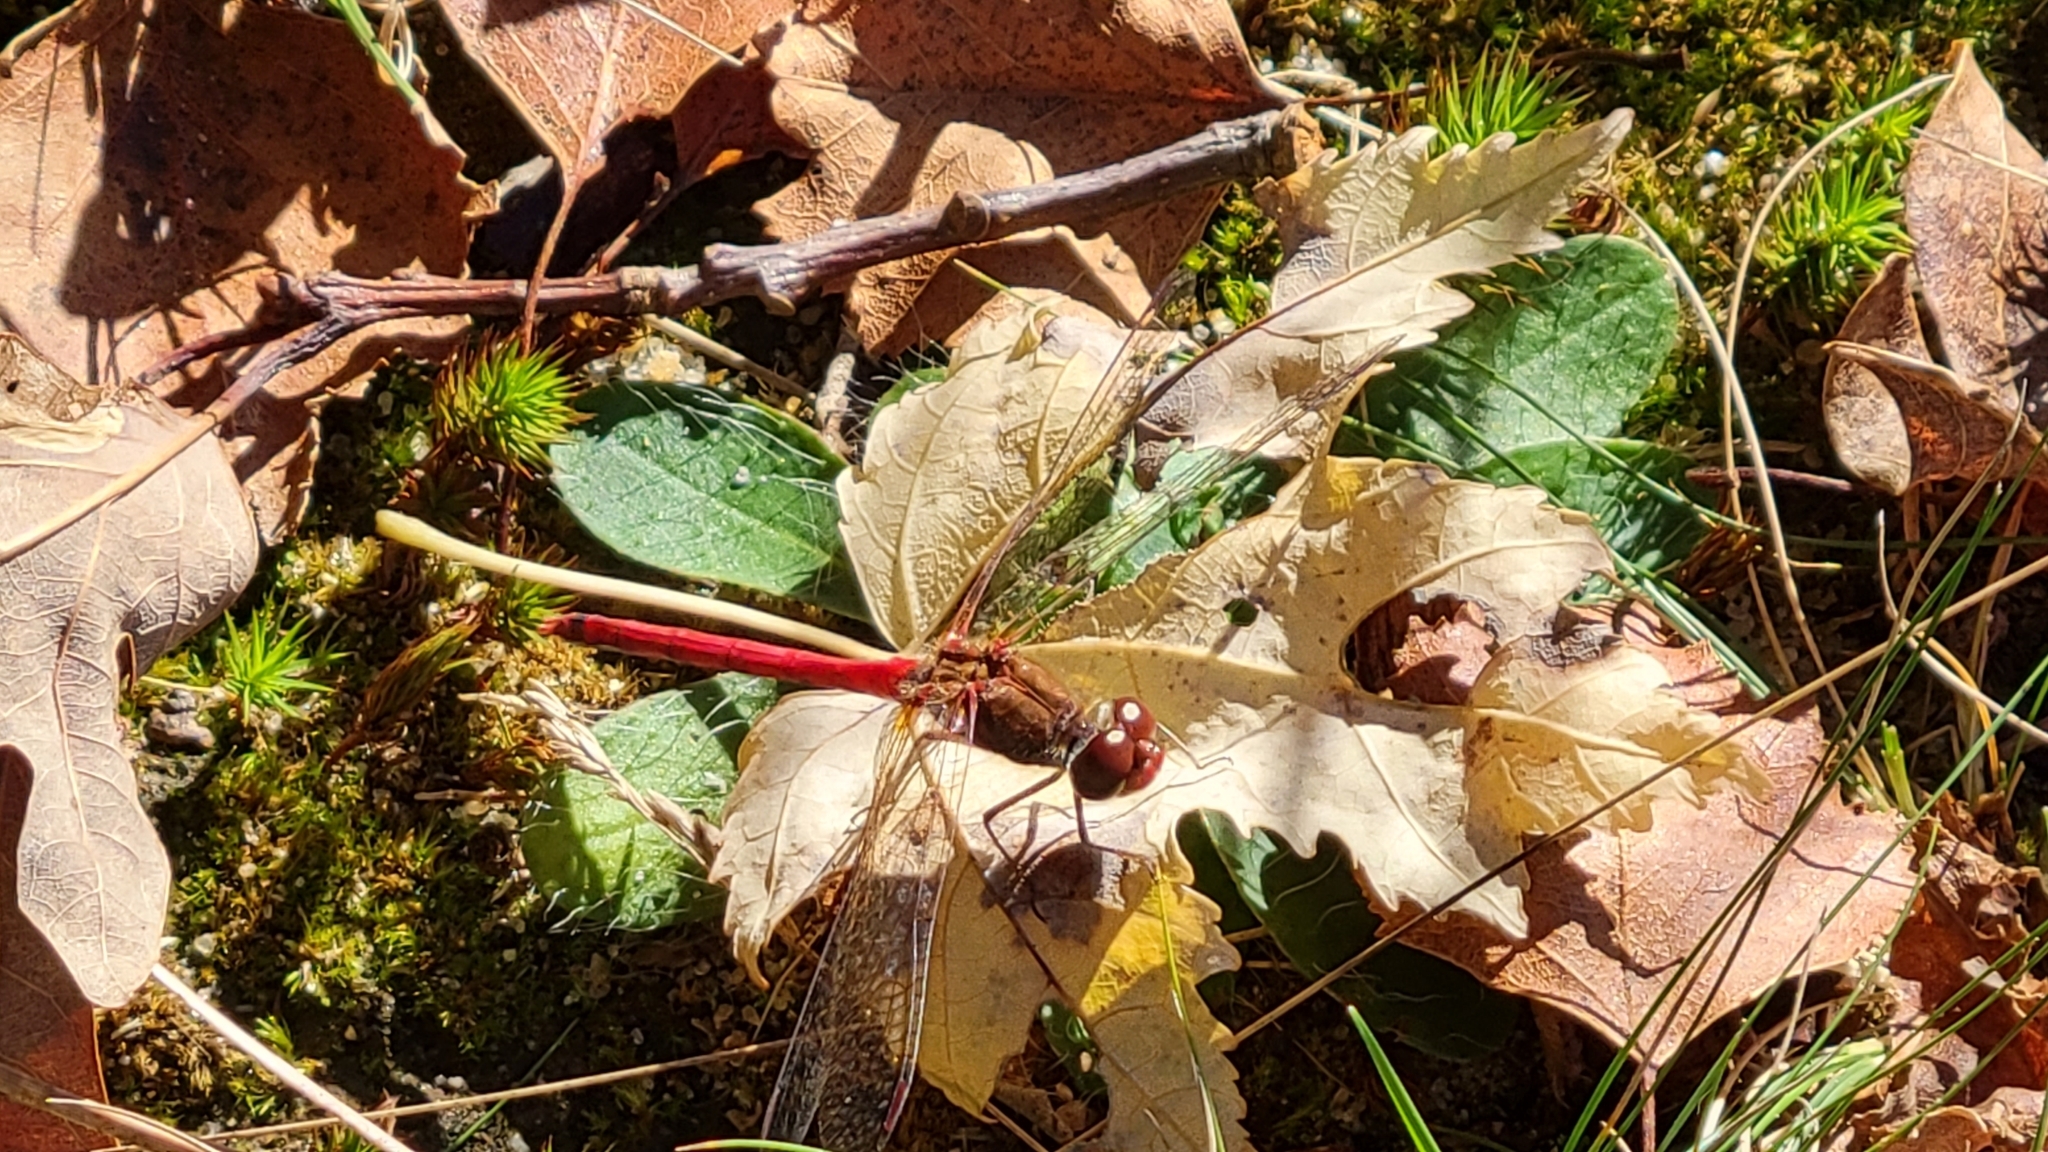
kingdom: Animalia
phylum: Arthropoda
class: Insecta
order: Odonata
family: Libellulidae
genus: Sympetrum
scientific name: Sympetrum vicinum
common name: Autumn meadowhawk
